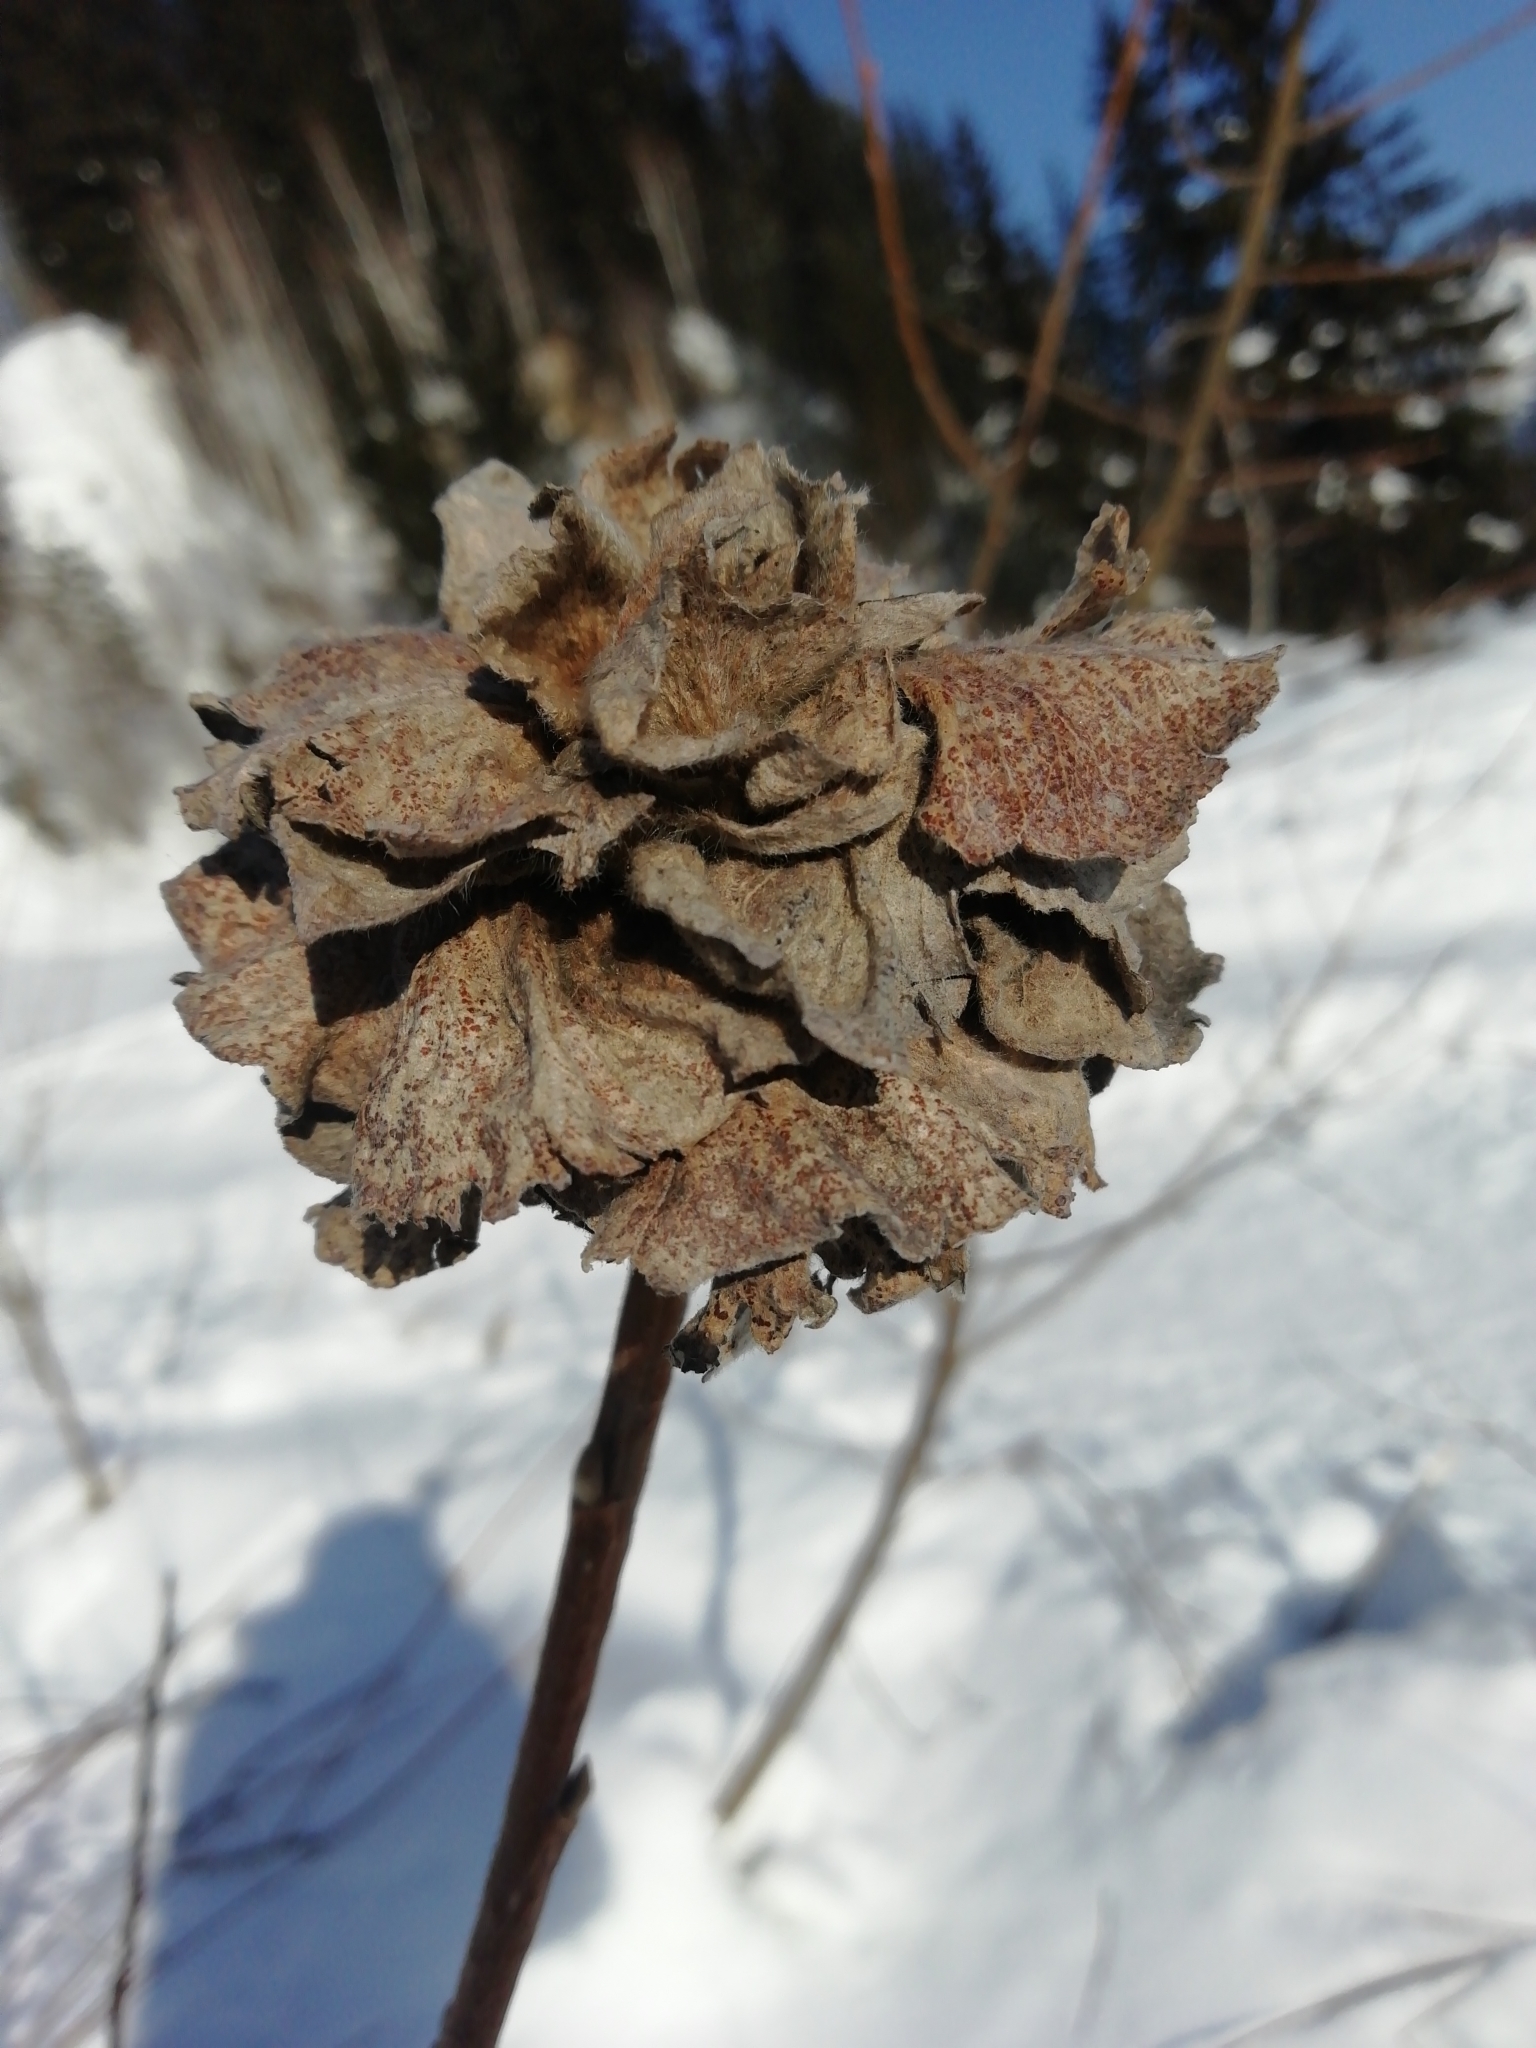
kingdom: Animalia
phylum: Arthropoda
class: Insecta
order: Diptera
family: Cecidomyiidae
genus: Rabdophaga
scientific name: Rabdophaga rosaria
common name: Willow rose gall midge
